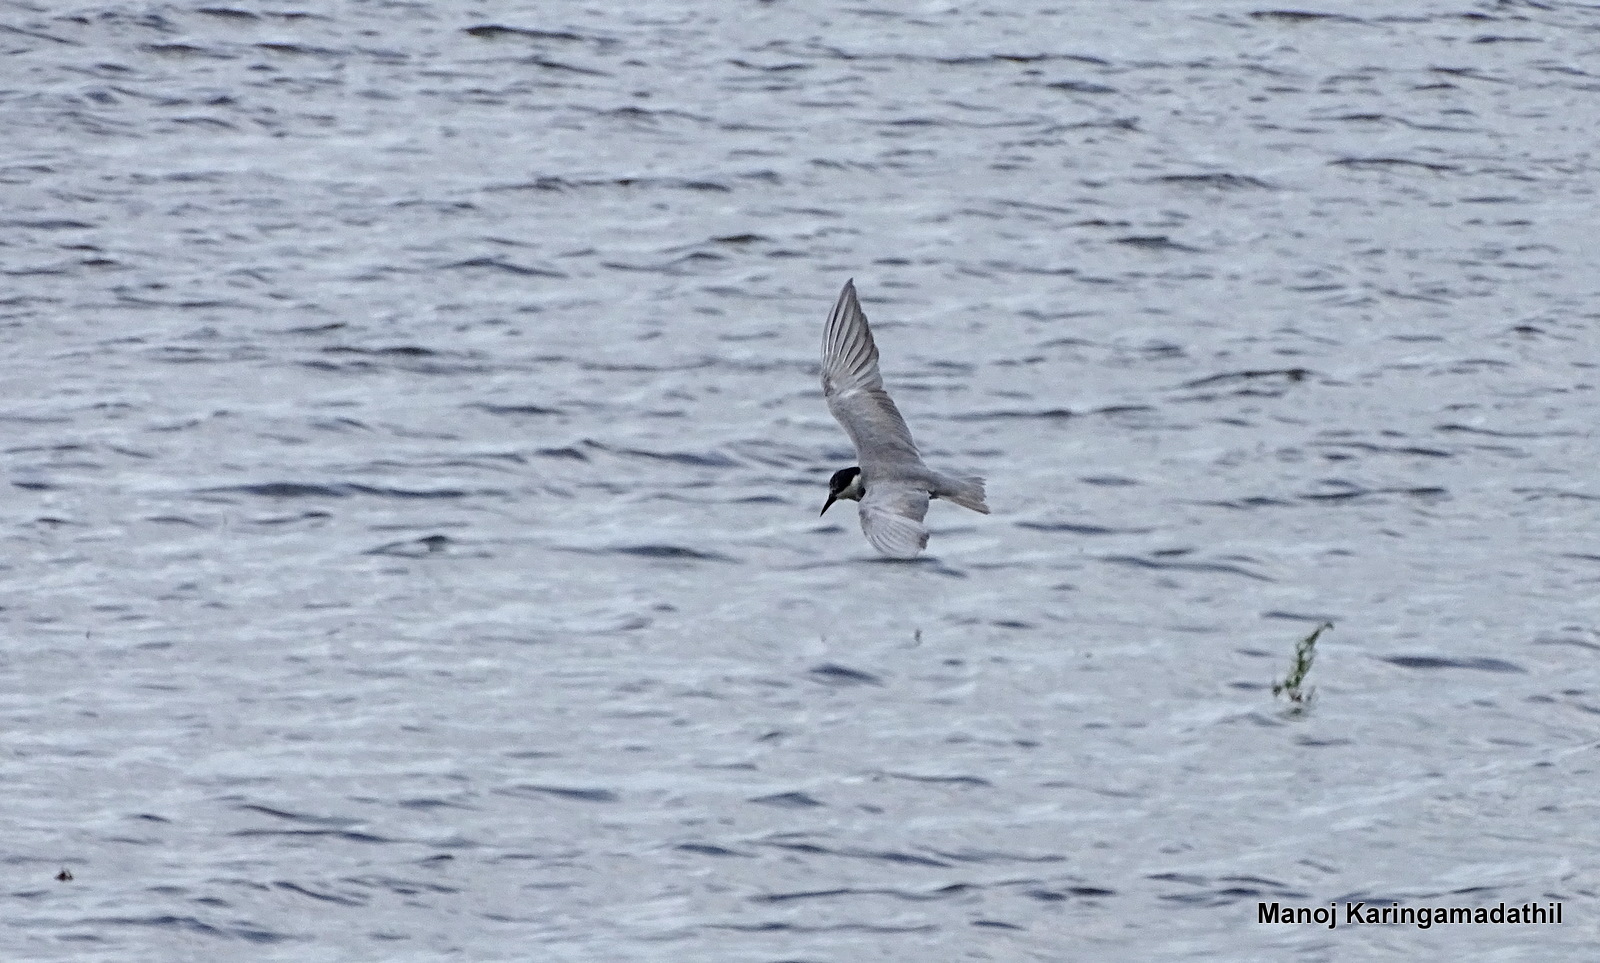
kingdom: Animalia
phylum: Chordata
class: Aves
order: Charadriiformes
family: Laridae
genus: Chlidonias
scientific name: Chlidonias hybrida
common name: Whiskered tern
